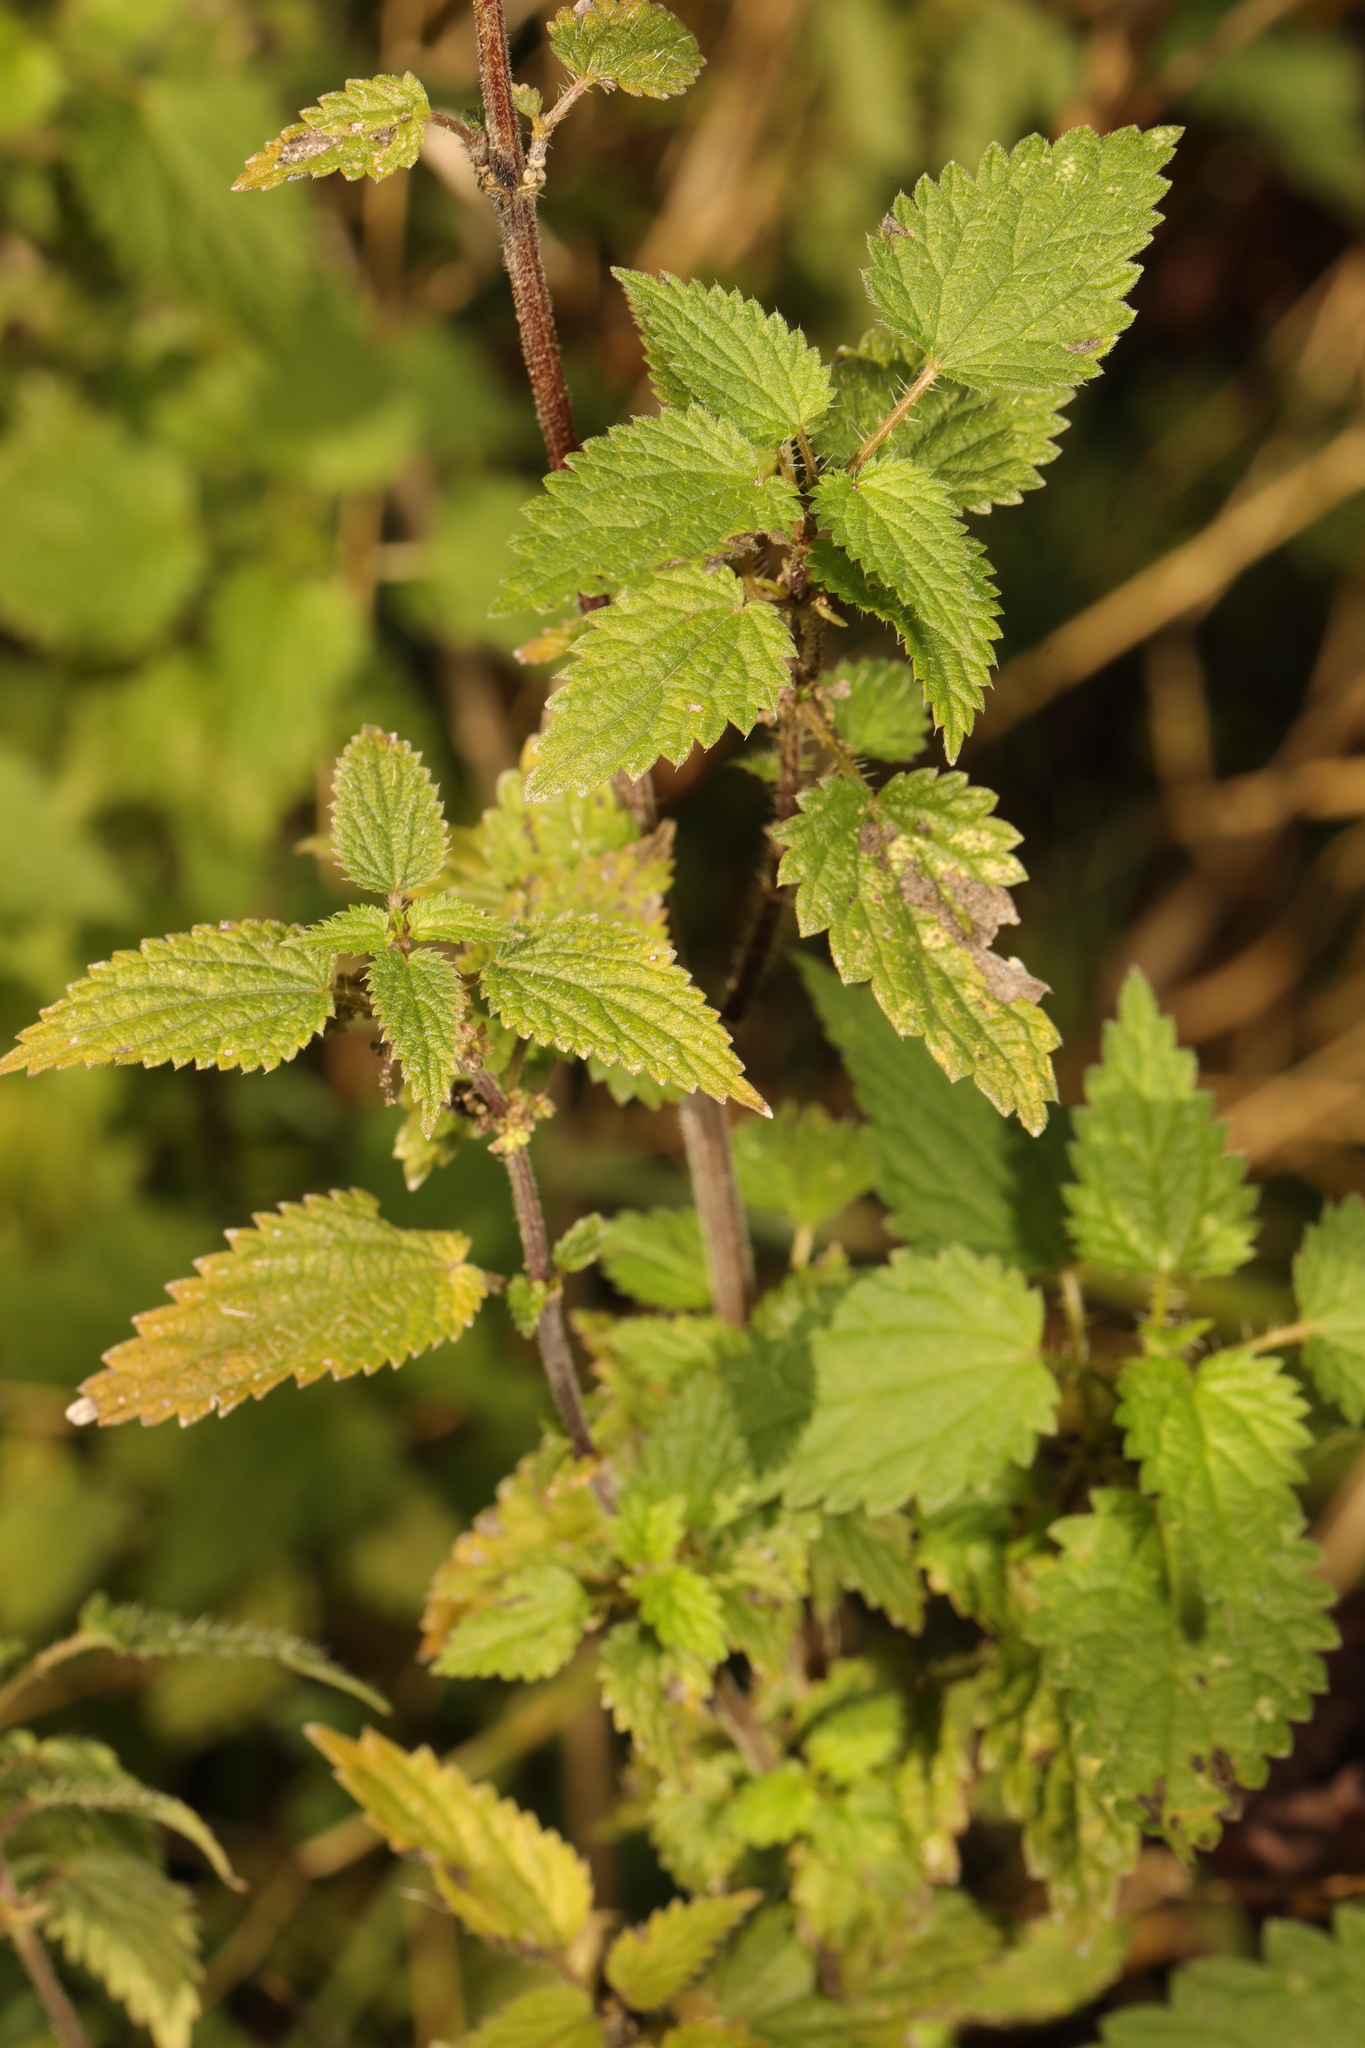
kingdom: Plantae
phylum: Tracheophyta
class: Magnoliopsida
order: Rosales
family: Urticaceae
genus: Urtica
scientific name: Urtica dioica
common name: Common nettle
